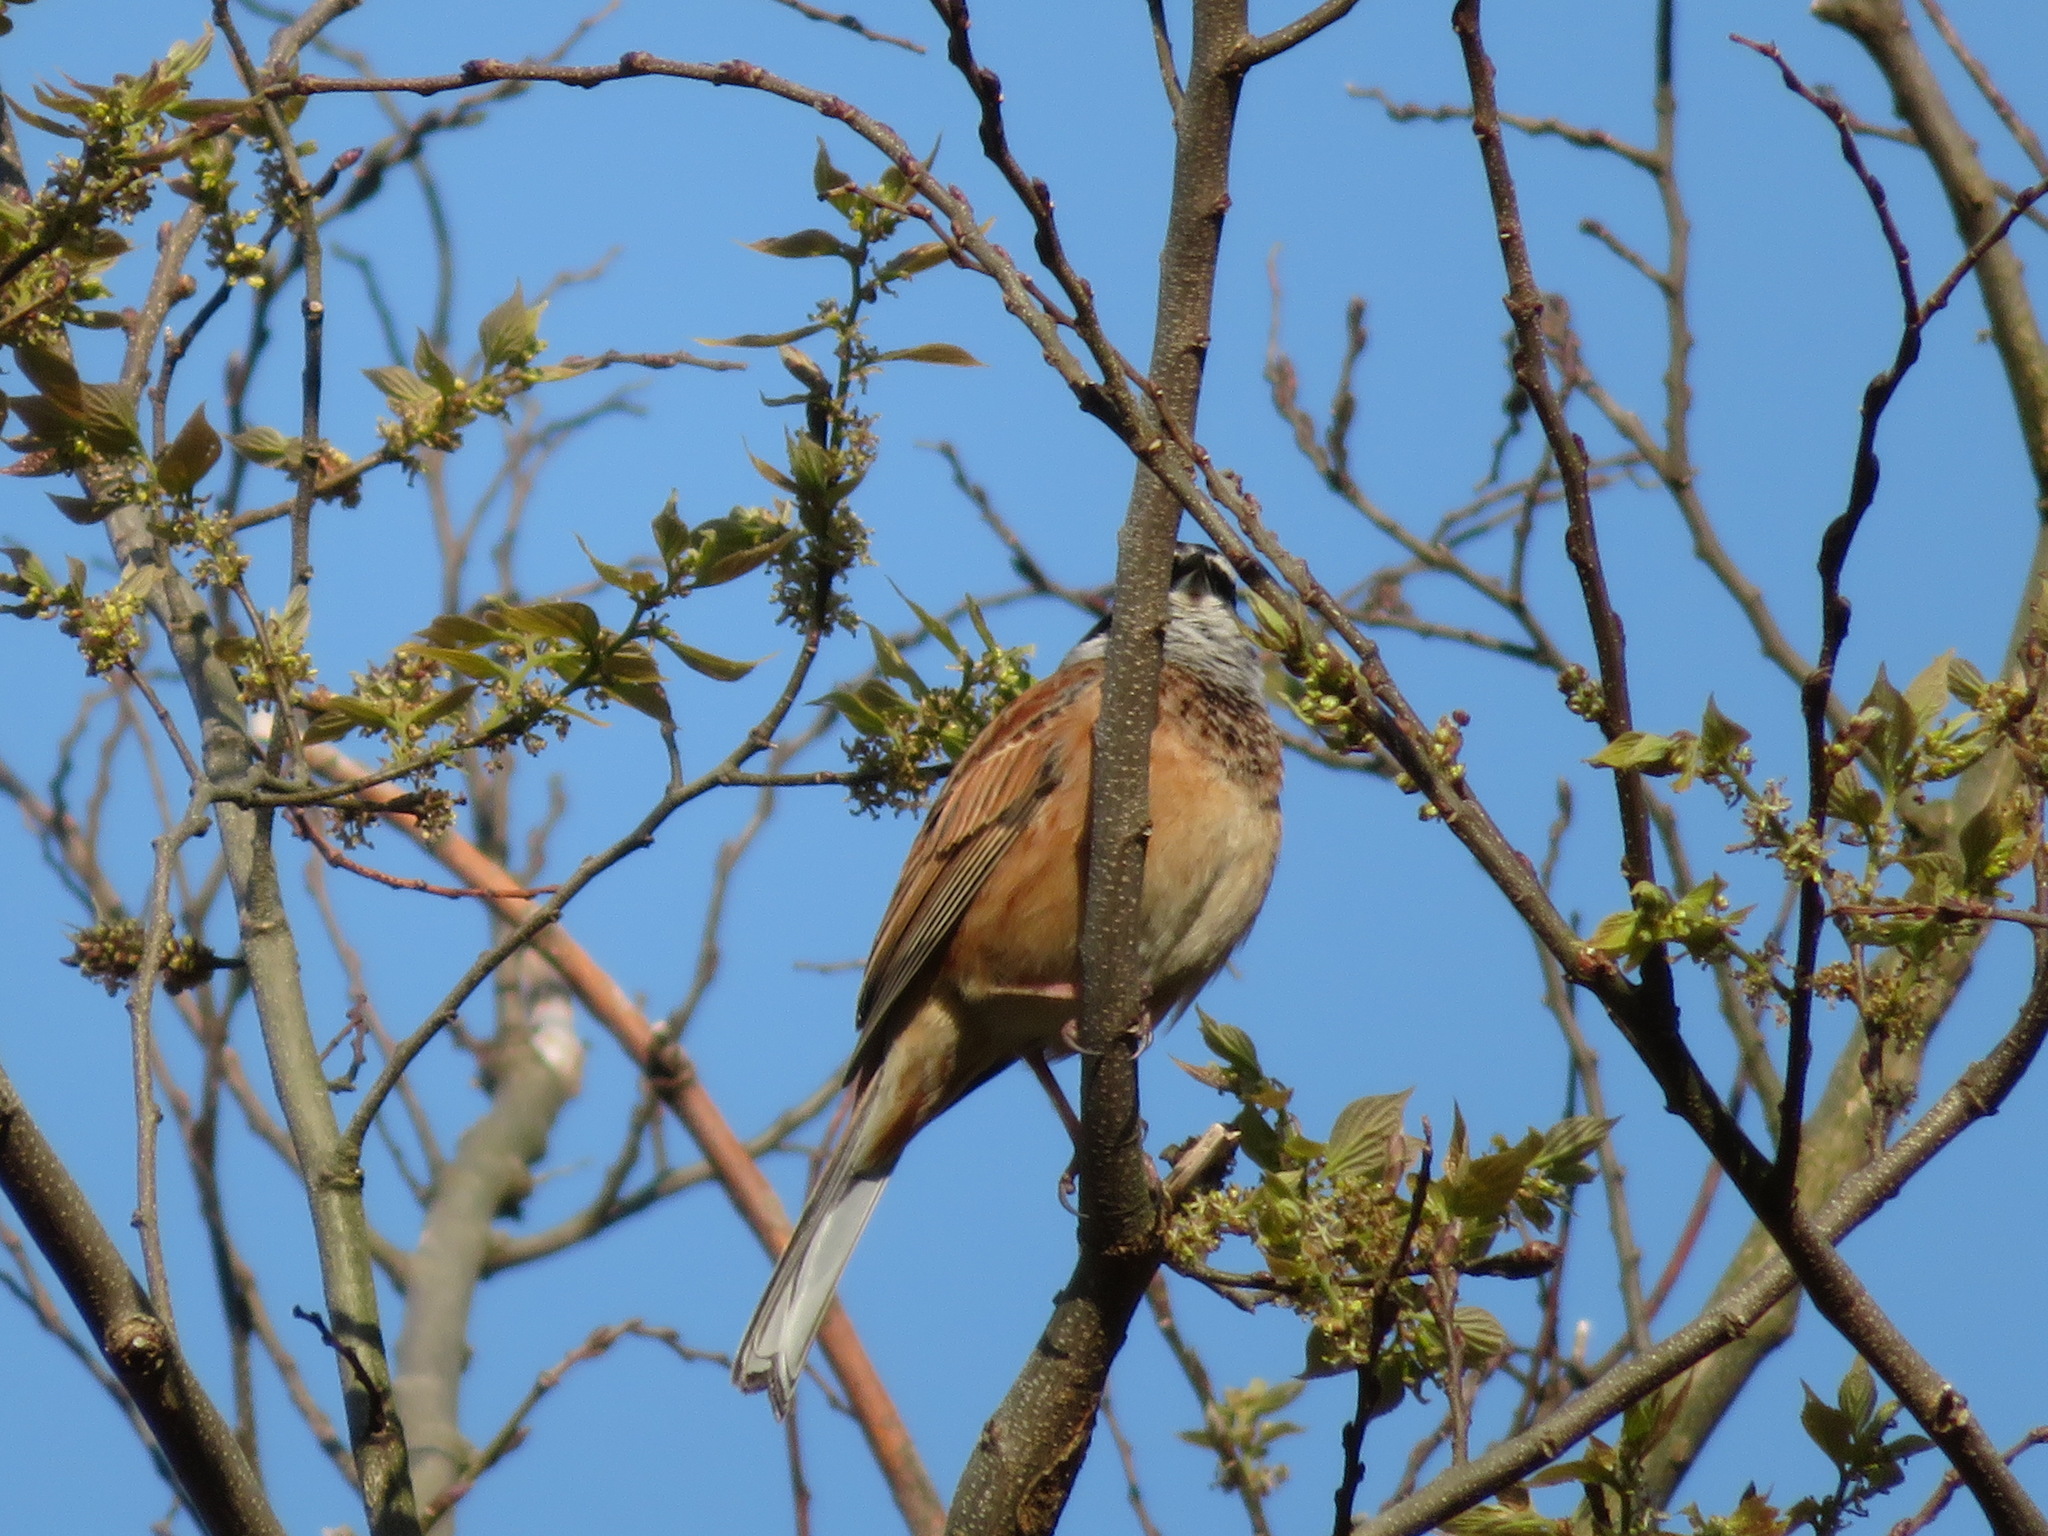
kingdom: Animalia
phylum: Chordata
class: Aves
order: Passeriformes
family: Emberizidae
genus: Emberiza
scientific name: Emberiza cioides
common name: Meadow bunting
